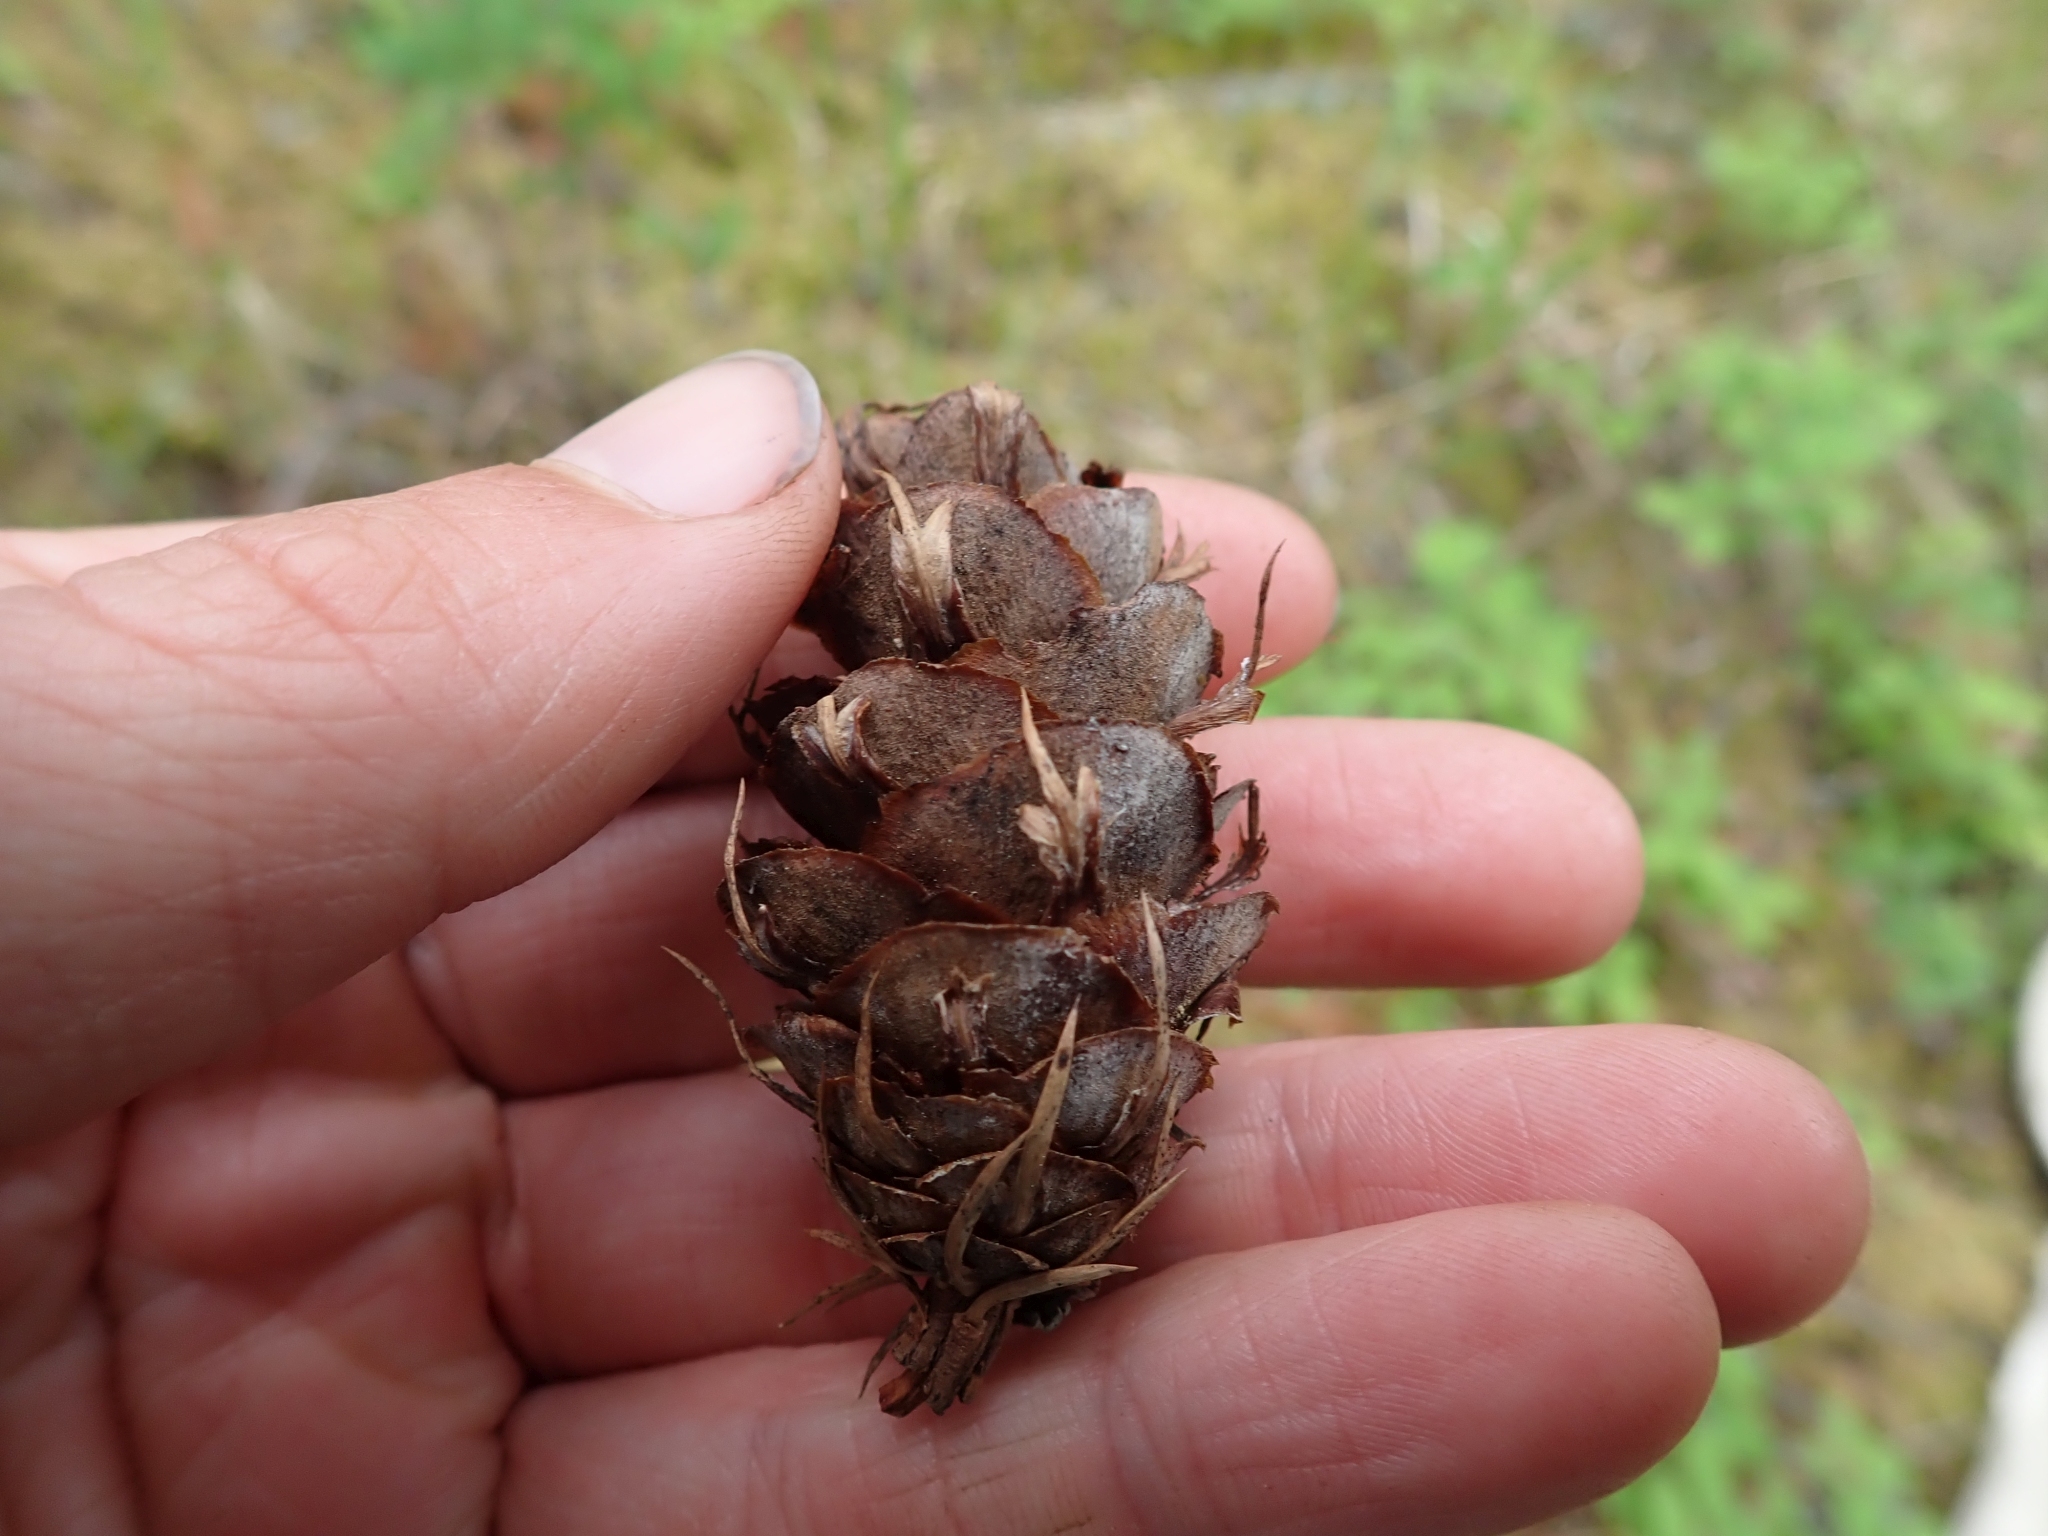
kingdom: Plantae
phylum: Tracheophyta
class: Pinopsida
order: Pinales
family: Pinaceae
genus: Pseudotsuga
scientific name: Pseudotsuga menziesii
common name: Douglas fir
